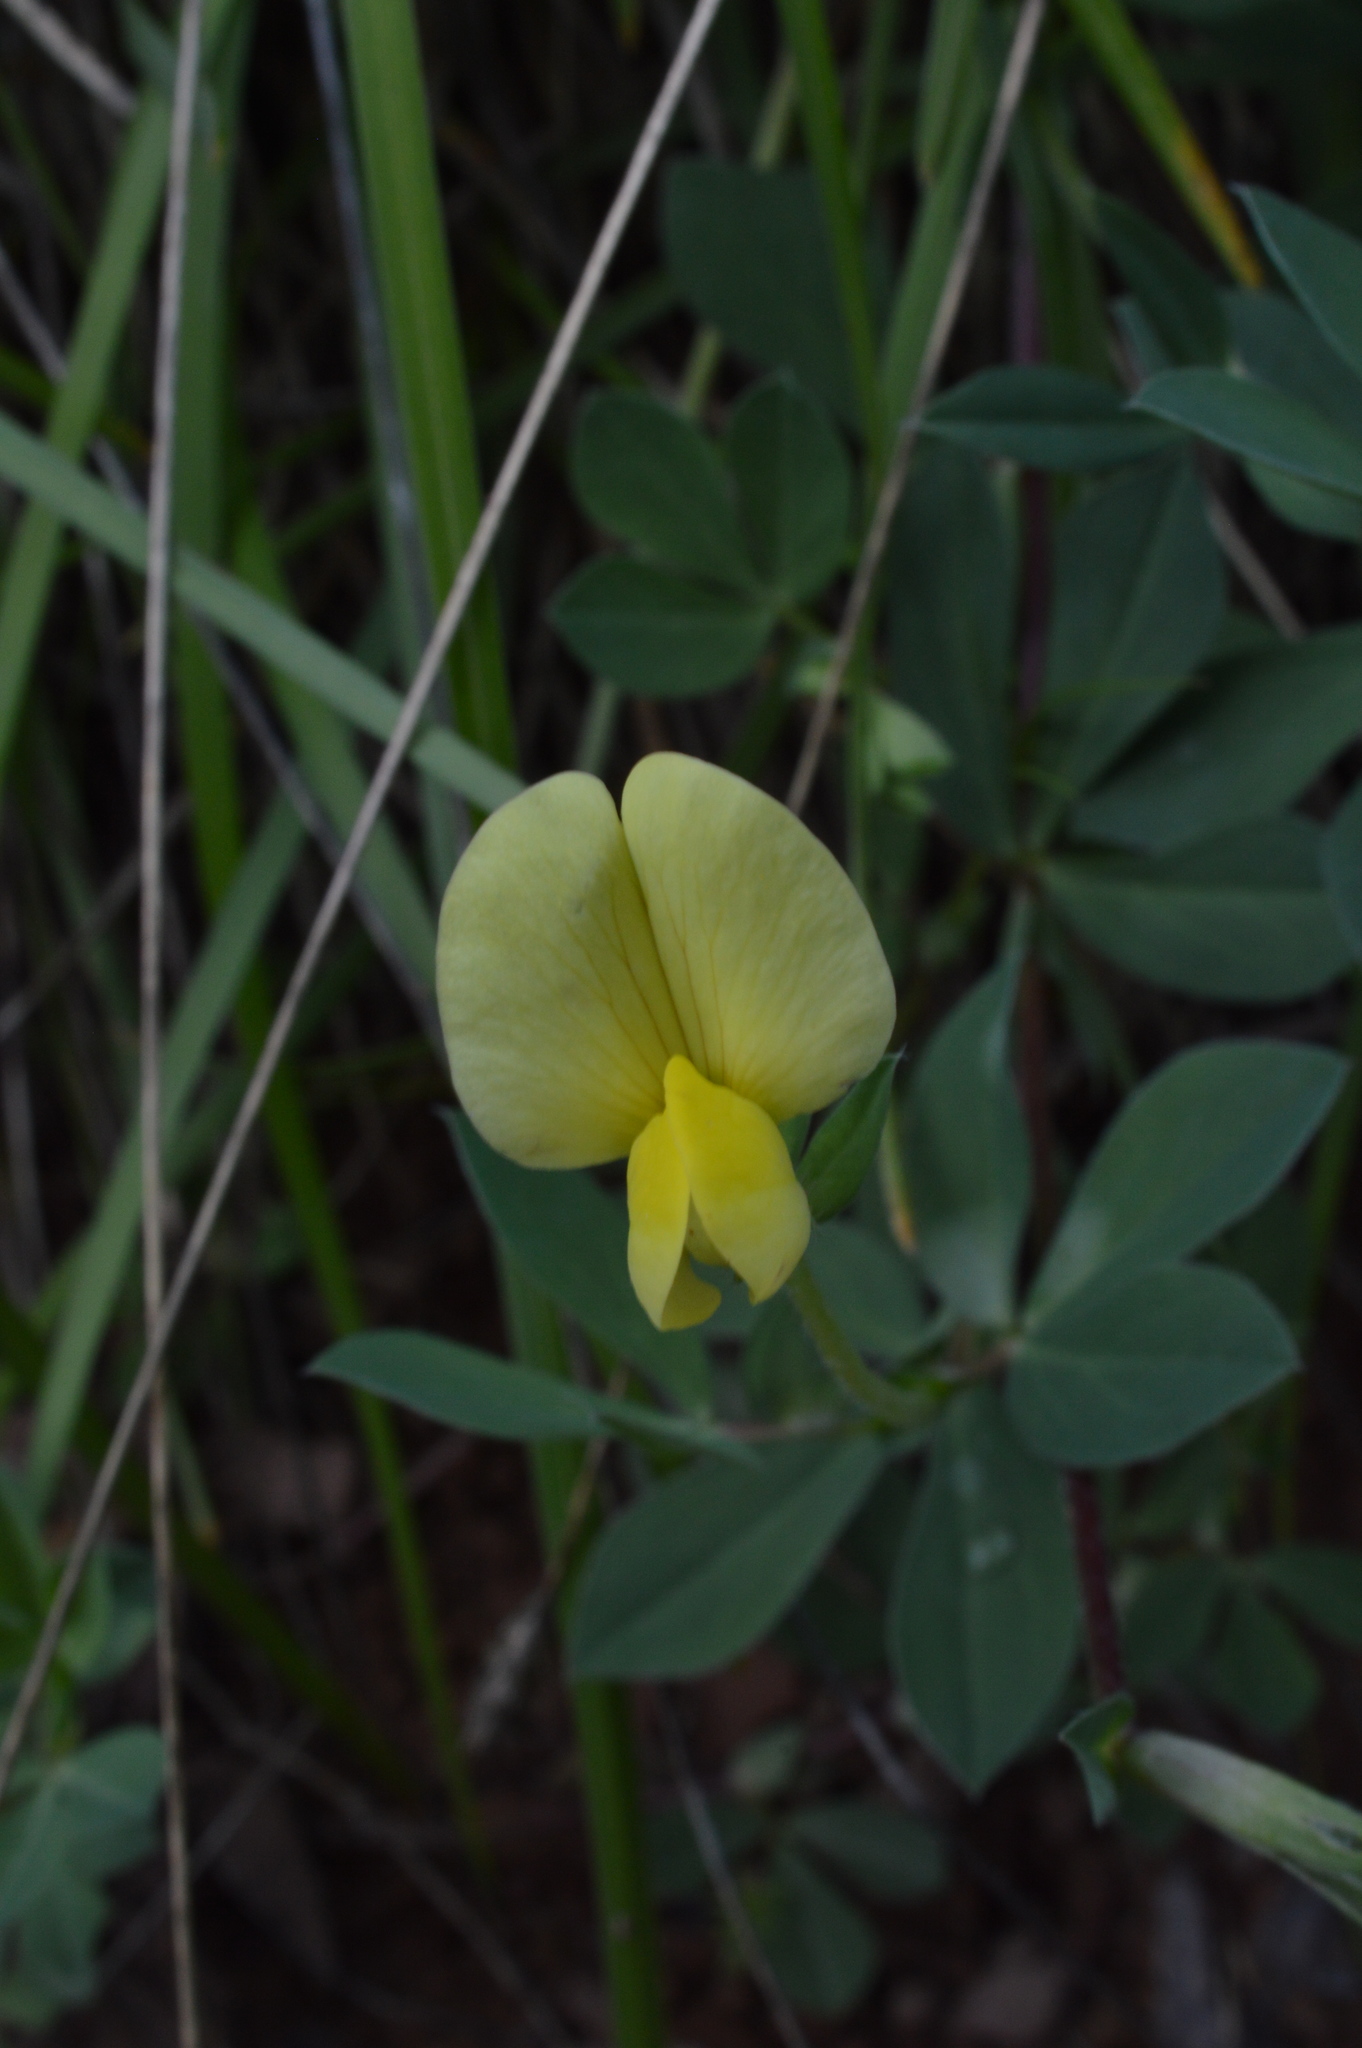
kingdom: Plantae
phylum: Tracheophyta
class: Magnoliopsida
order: Fabales
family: Fabaceae
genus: Lotus
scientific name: Lotus maritimus
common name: Dragon's-teeth
